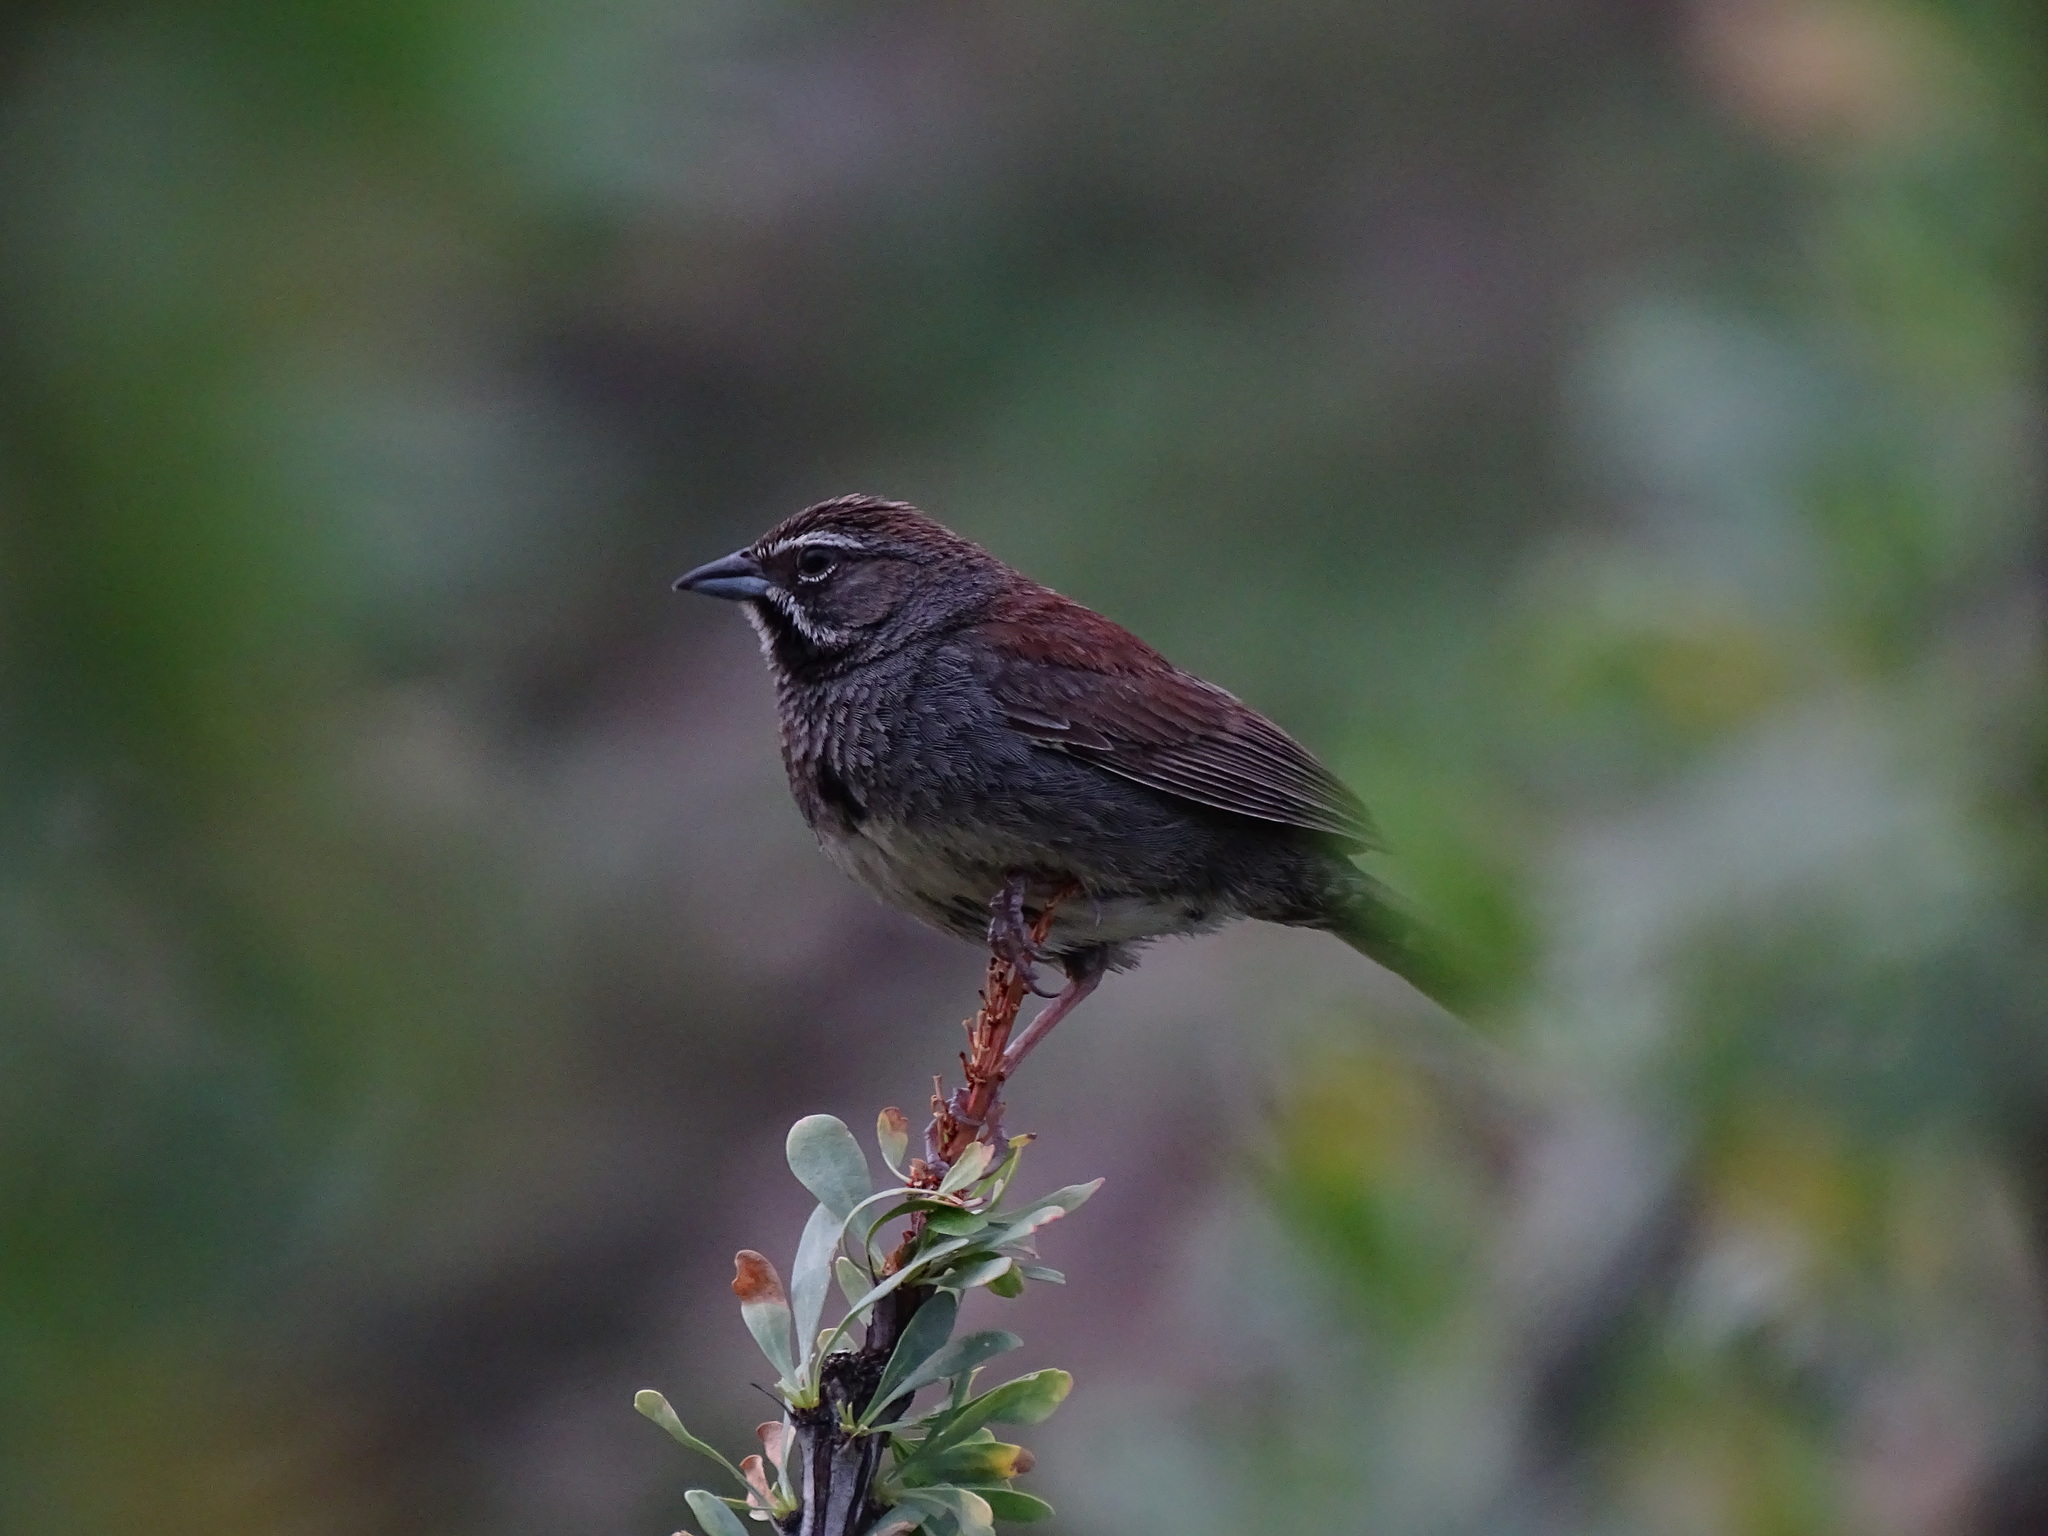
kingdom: Animalia
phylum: Chordata
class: Aves
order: Passeriformes
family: Passerellidae
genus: Amphispizopsis
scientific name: Amphispizopsis quinquestriata
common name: Five-striped sparrow
